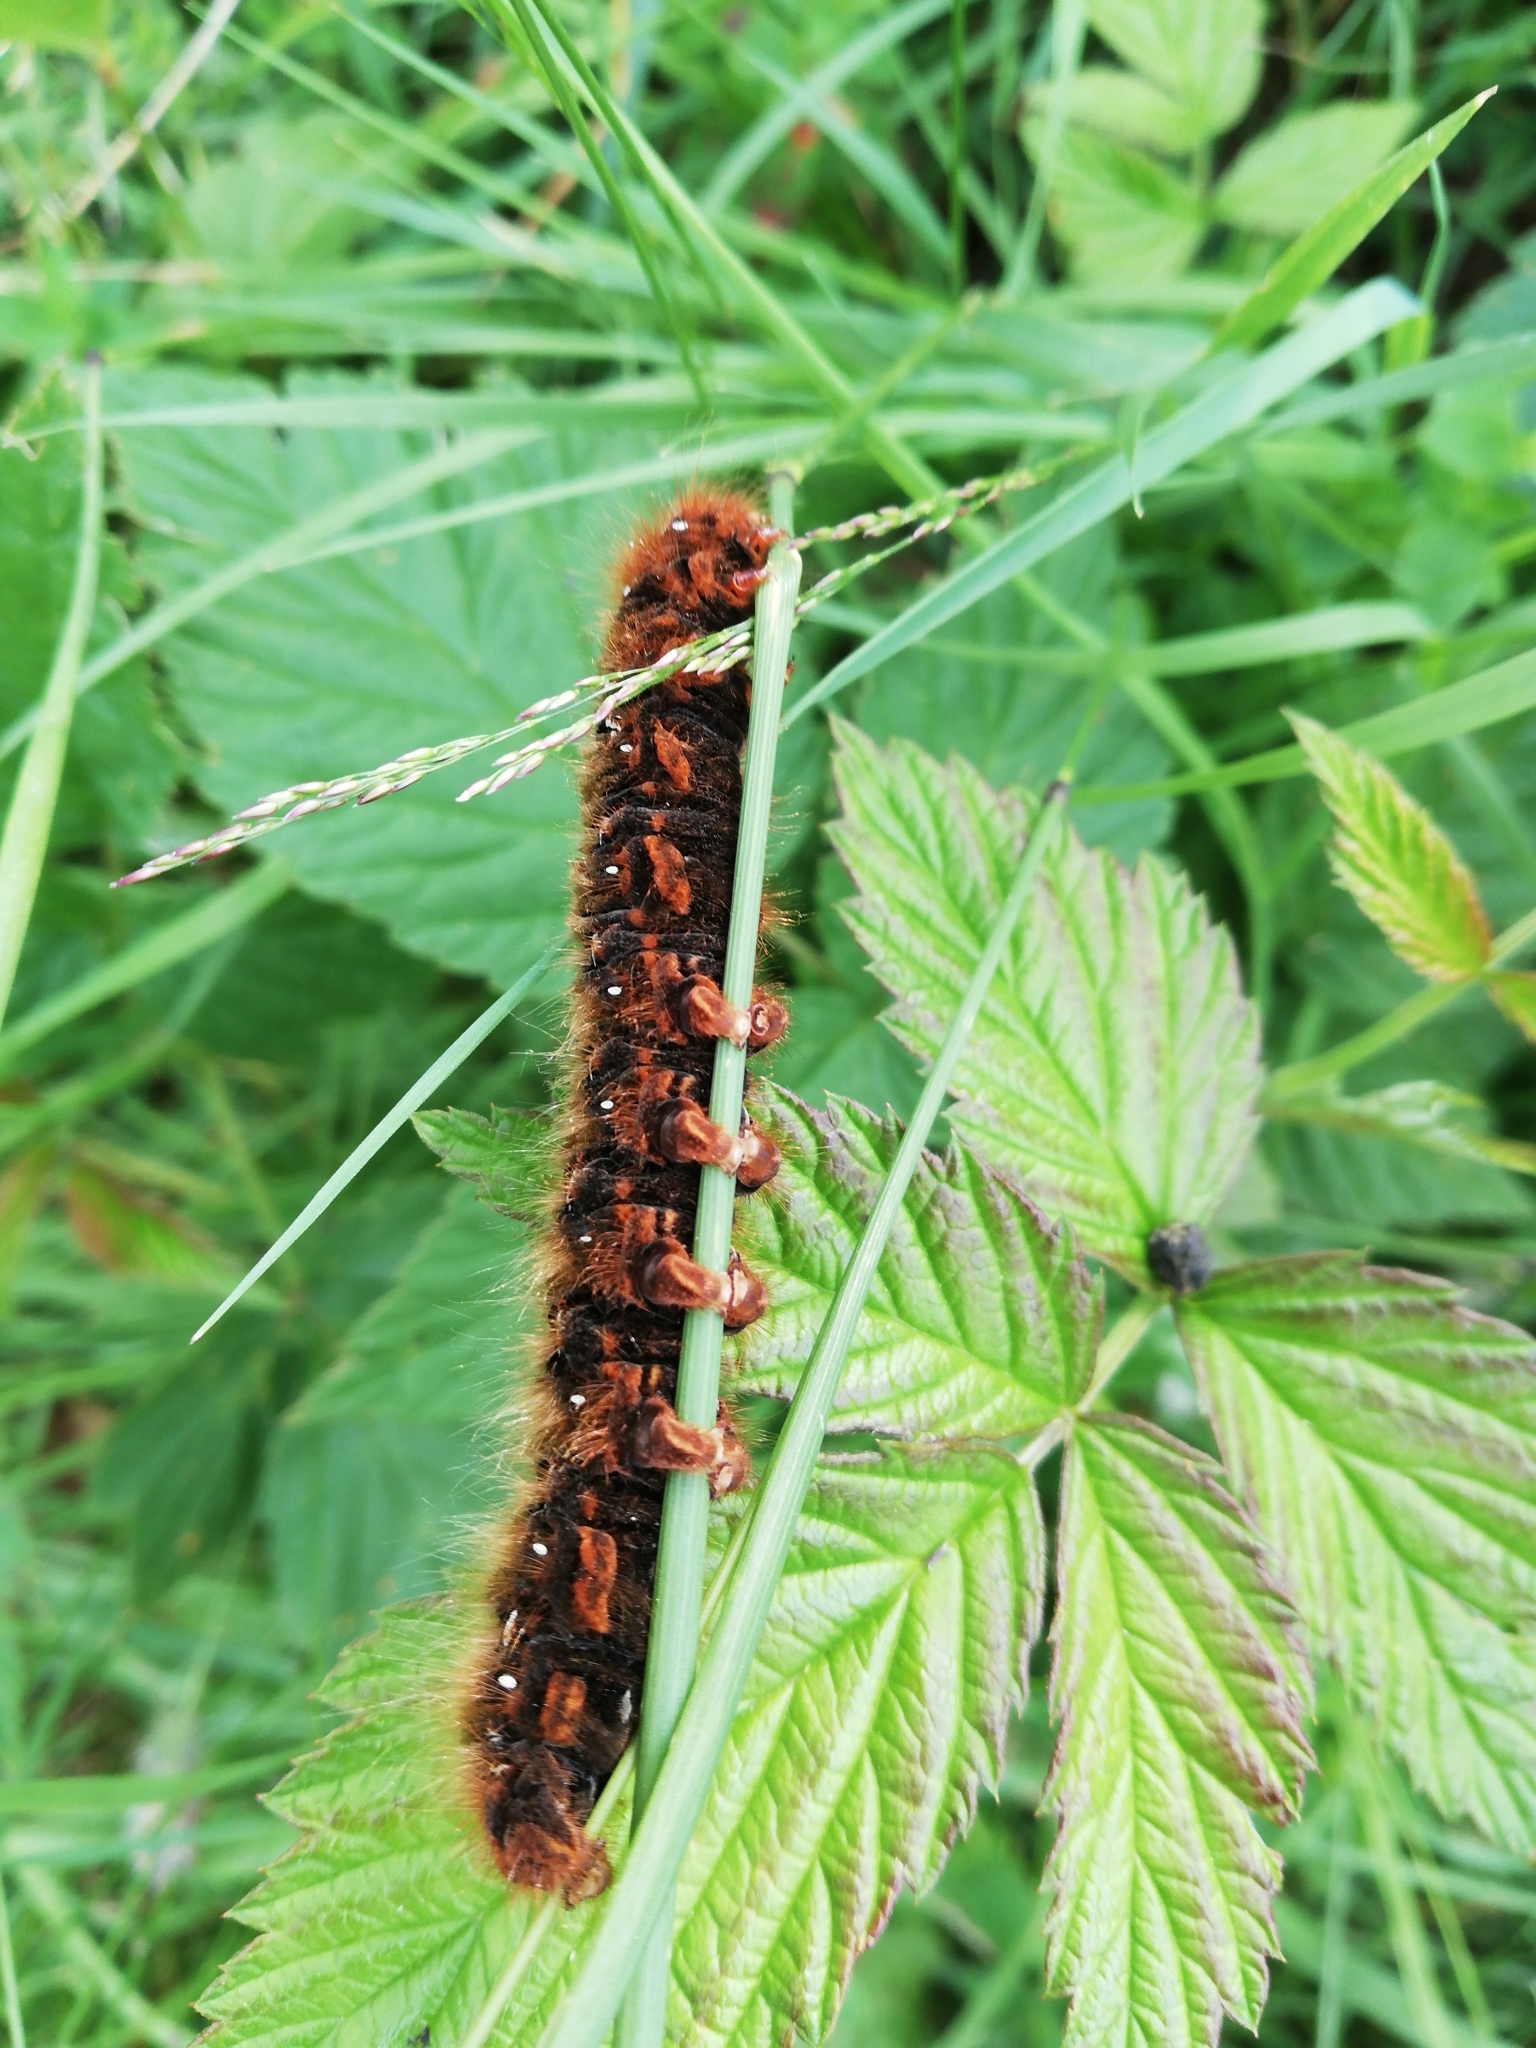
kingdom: Animalia
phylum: Arthropoda
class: Insecta
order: Lepidoptera
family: Lasiocampidae
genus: Lasiocampa
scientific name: Lasiocampa quercus
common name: Oak eggar
